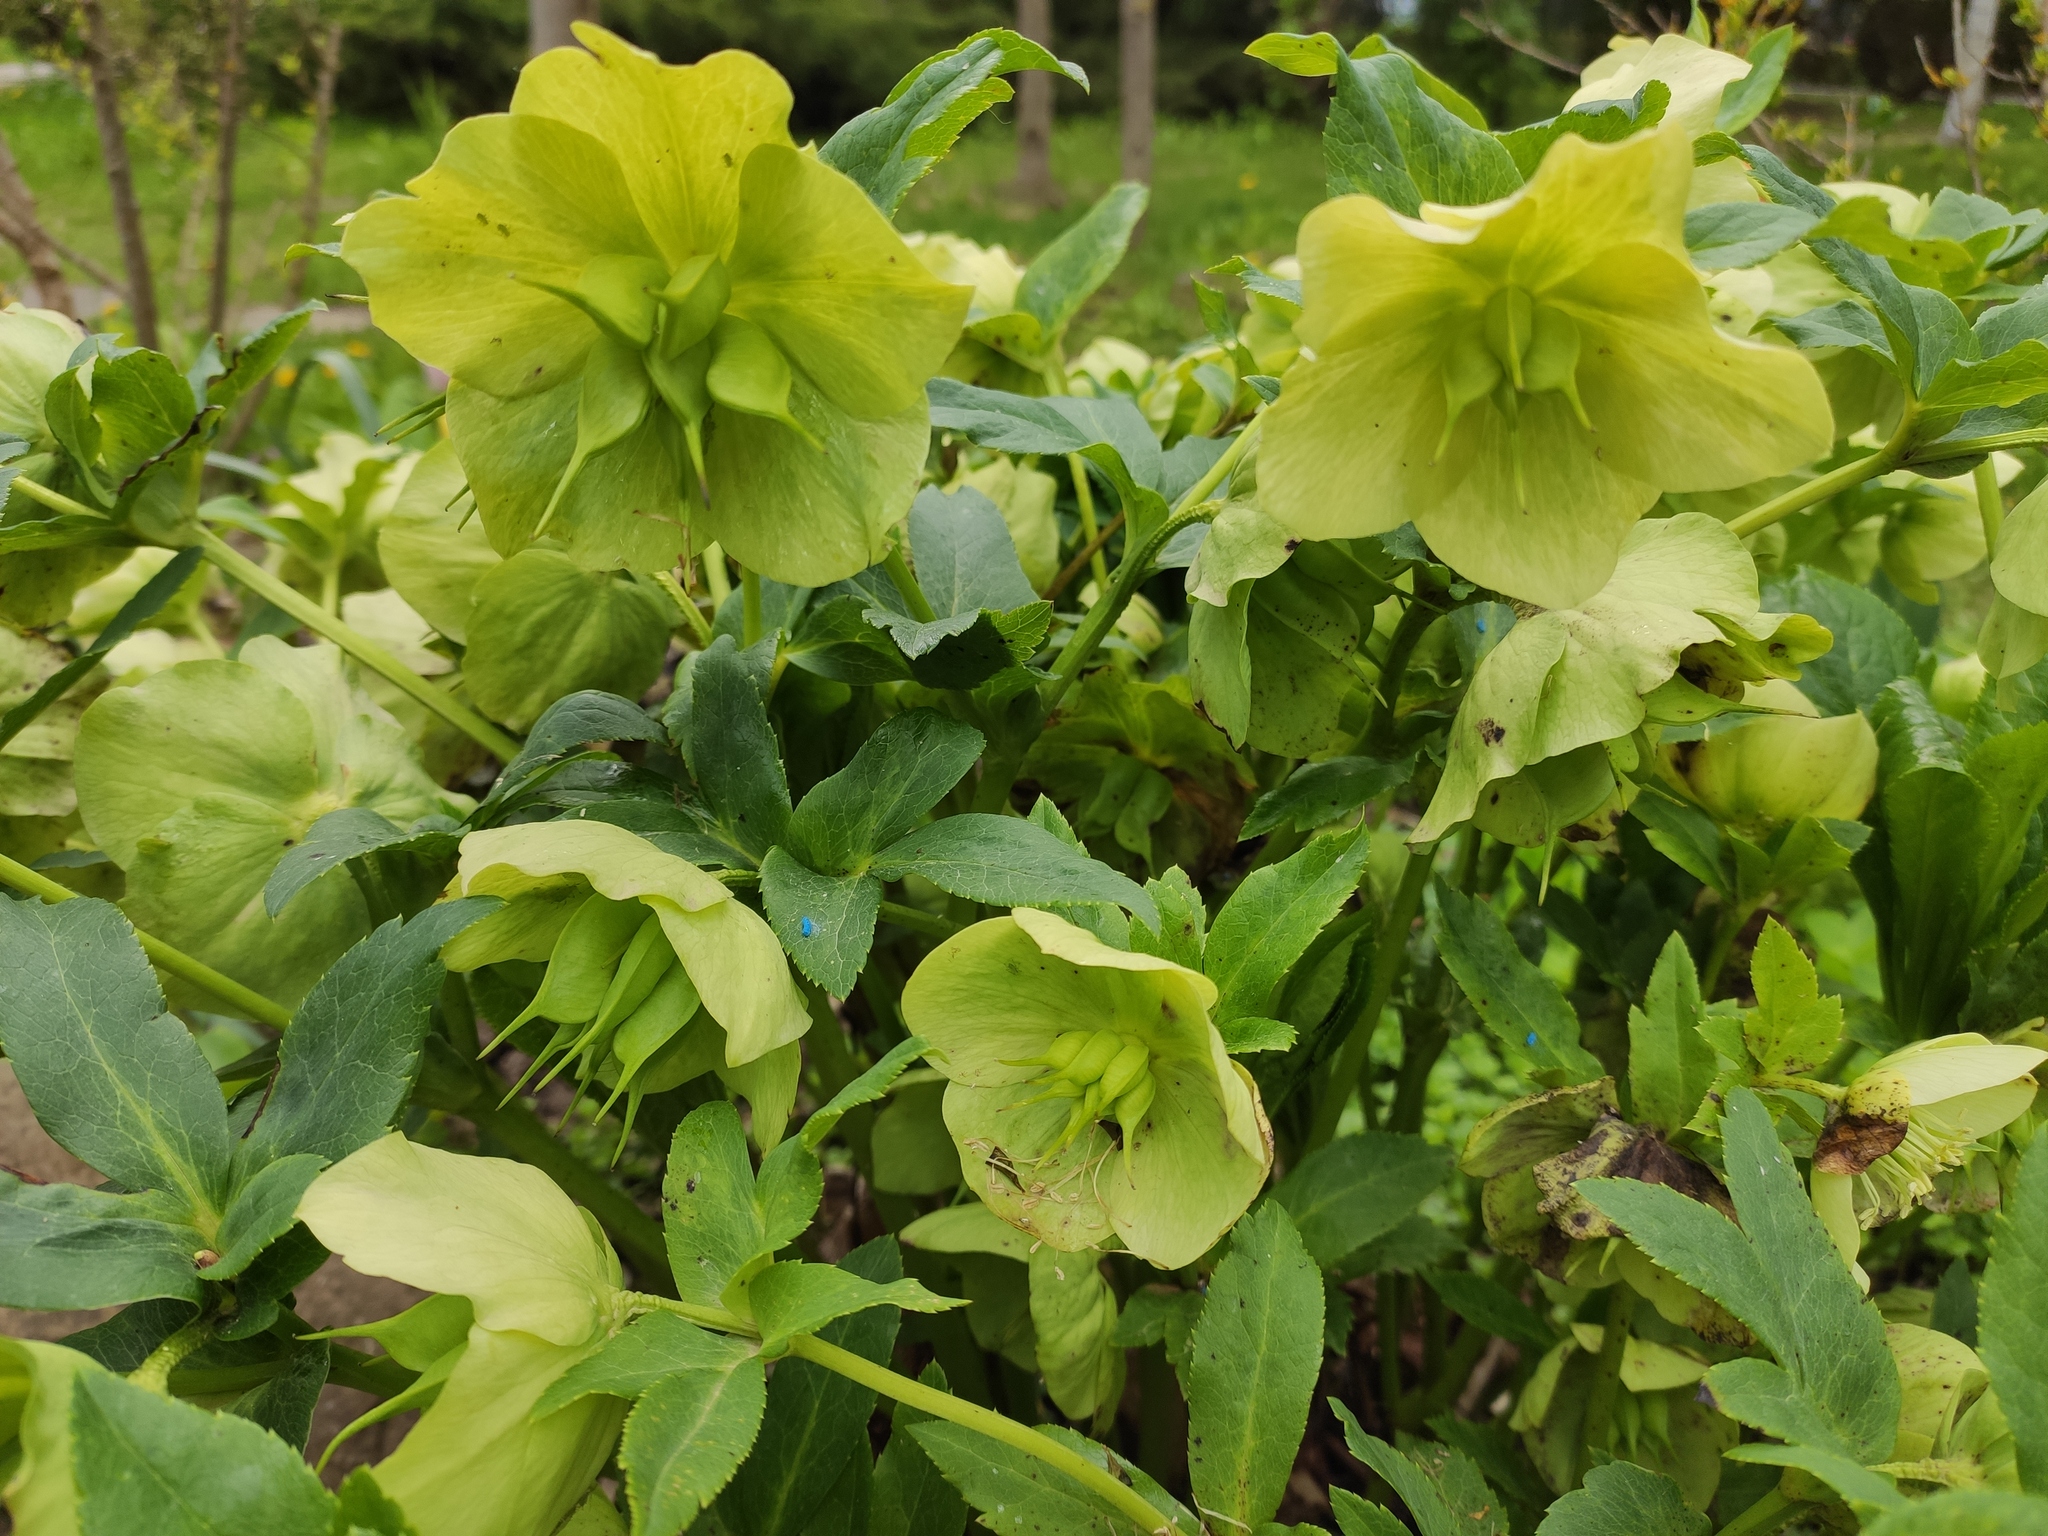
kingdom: Plantae
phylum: Tracheophyta
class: Magnoliopsida
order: Ranunculales
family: Ranunculaceae
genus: Helleborus
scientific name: Helleborus orientalis
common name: Lenten-rose
